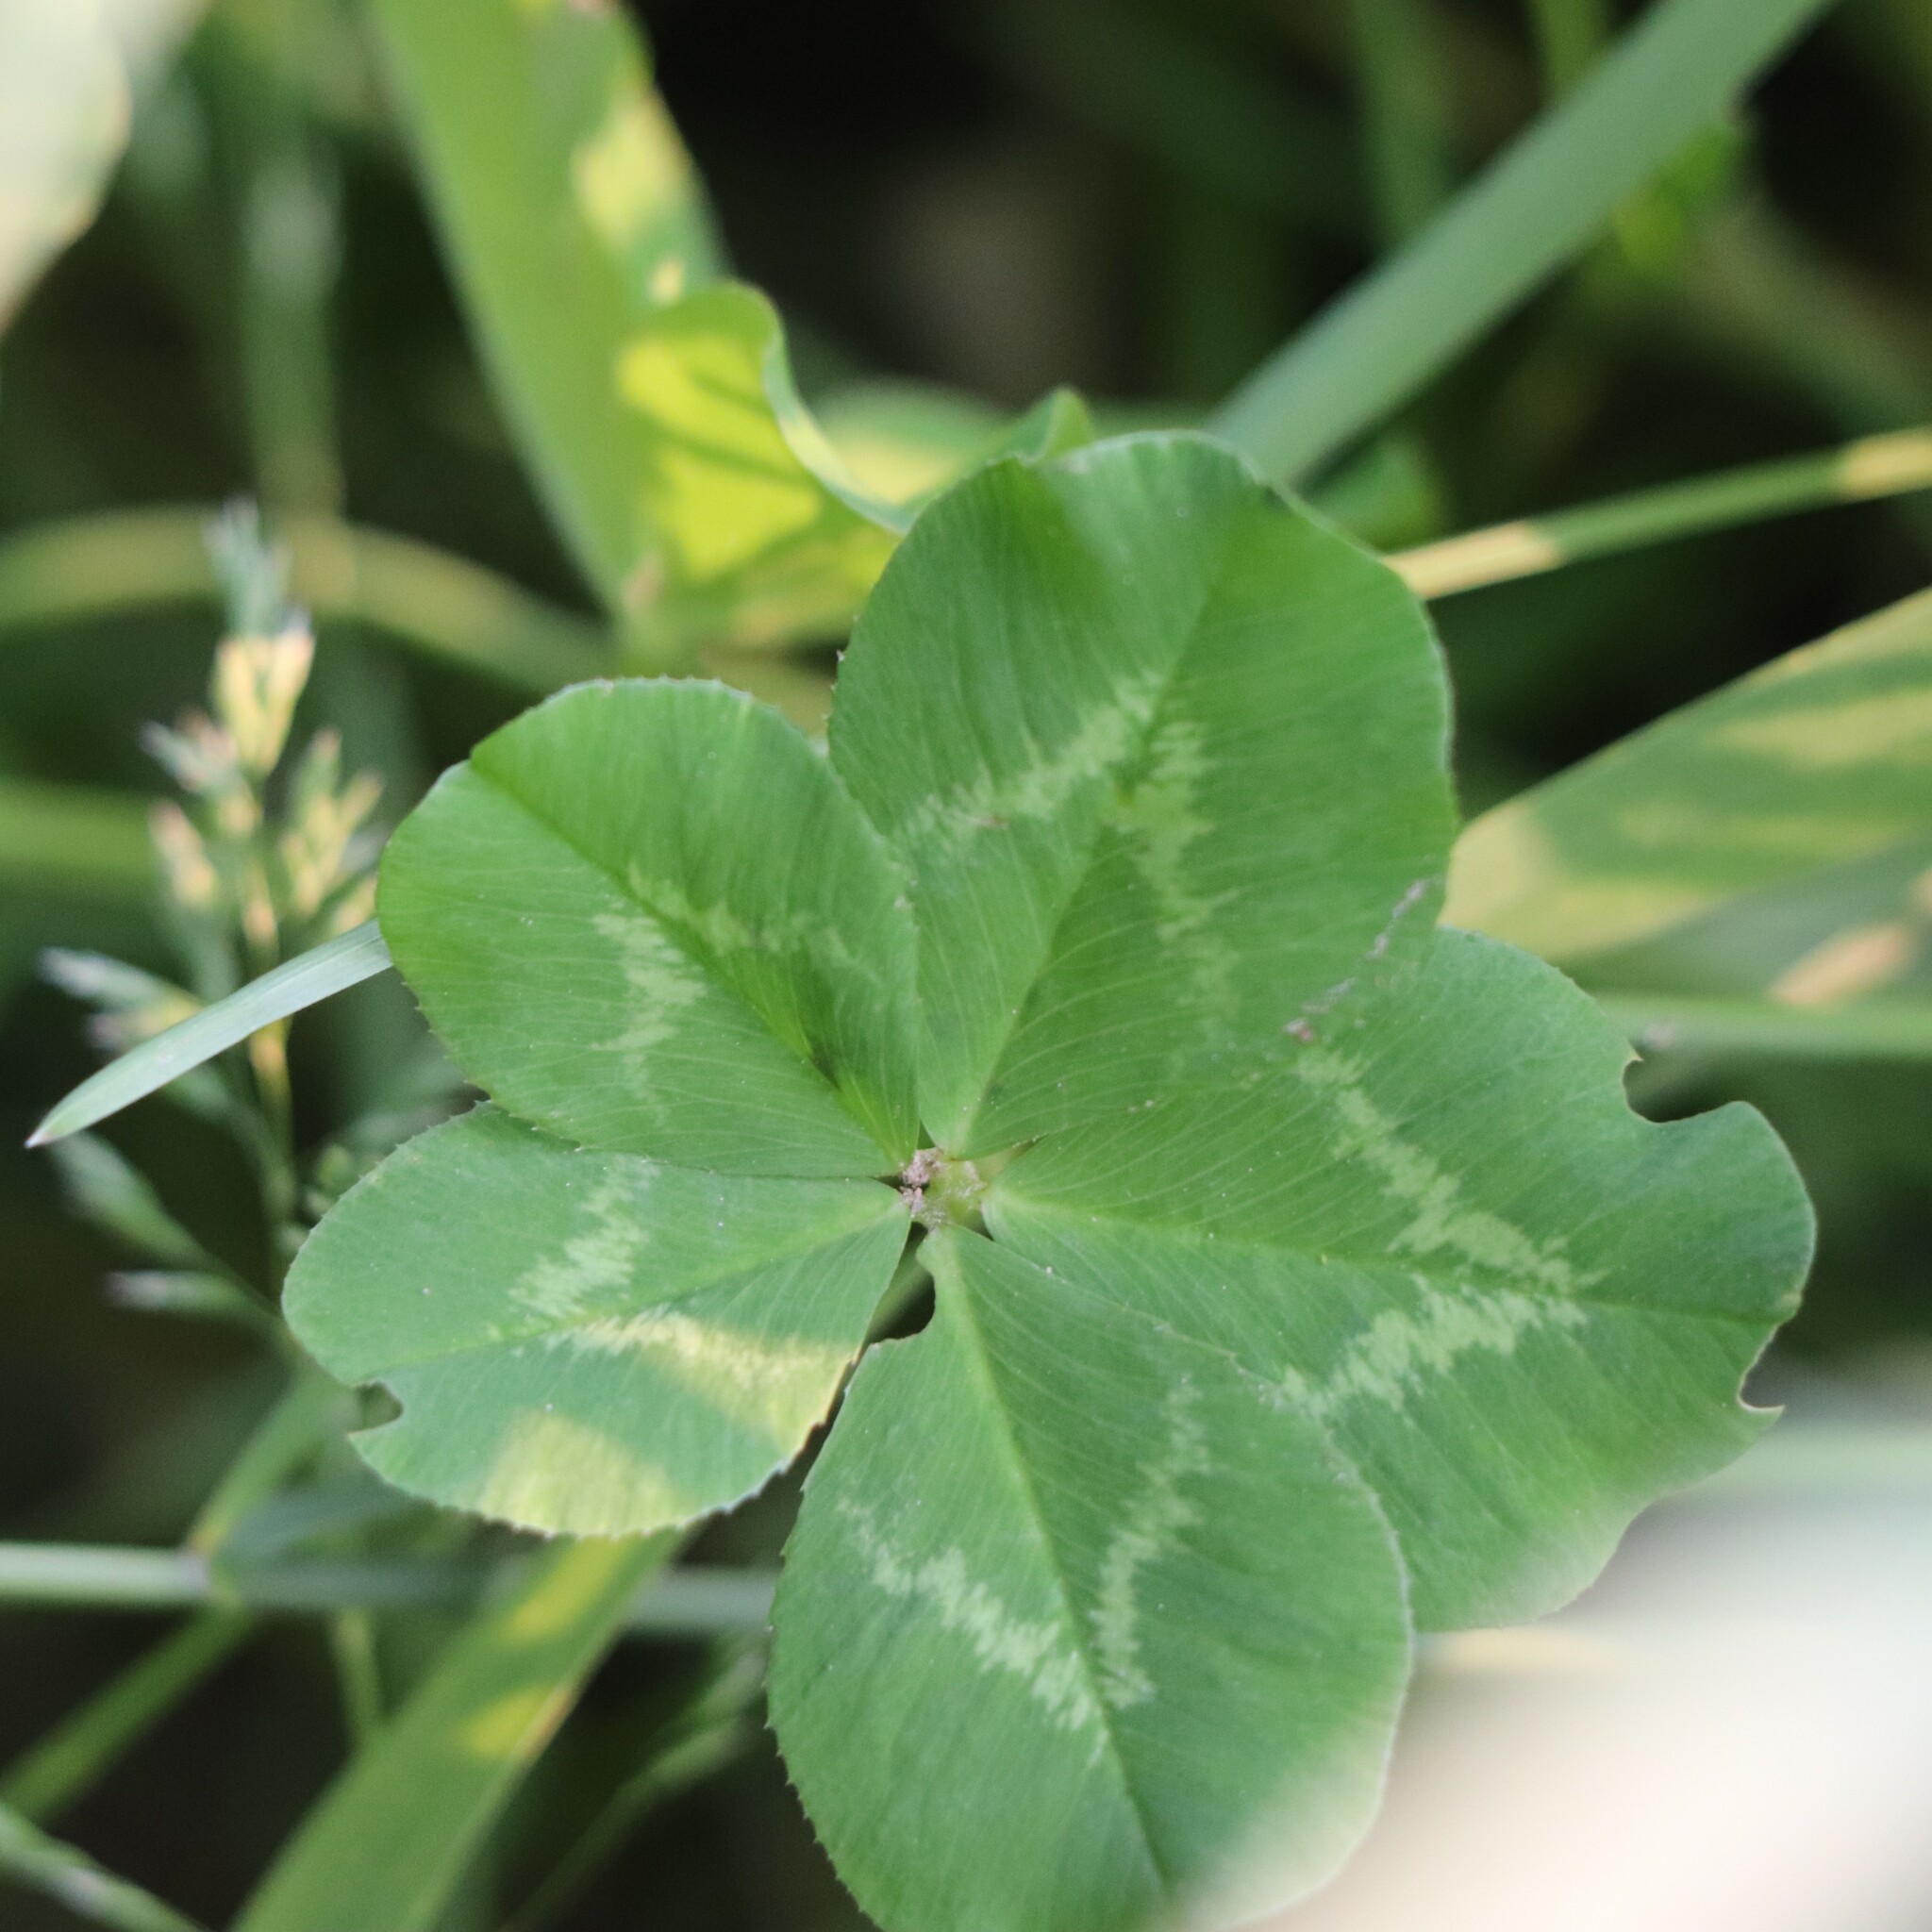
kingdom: Plantae
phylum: Tracheophyta
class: Magnoliopsida
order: Fabales
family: Fabaceae
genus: Trifolium
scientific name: Trifolium repens
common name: White clover
